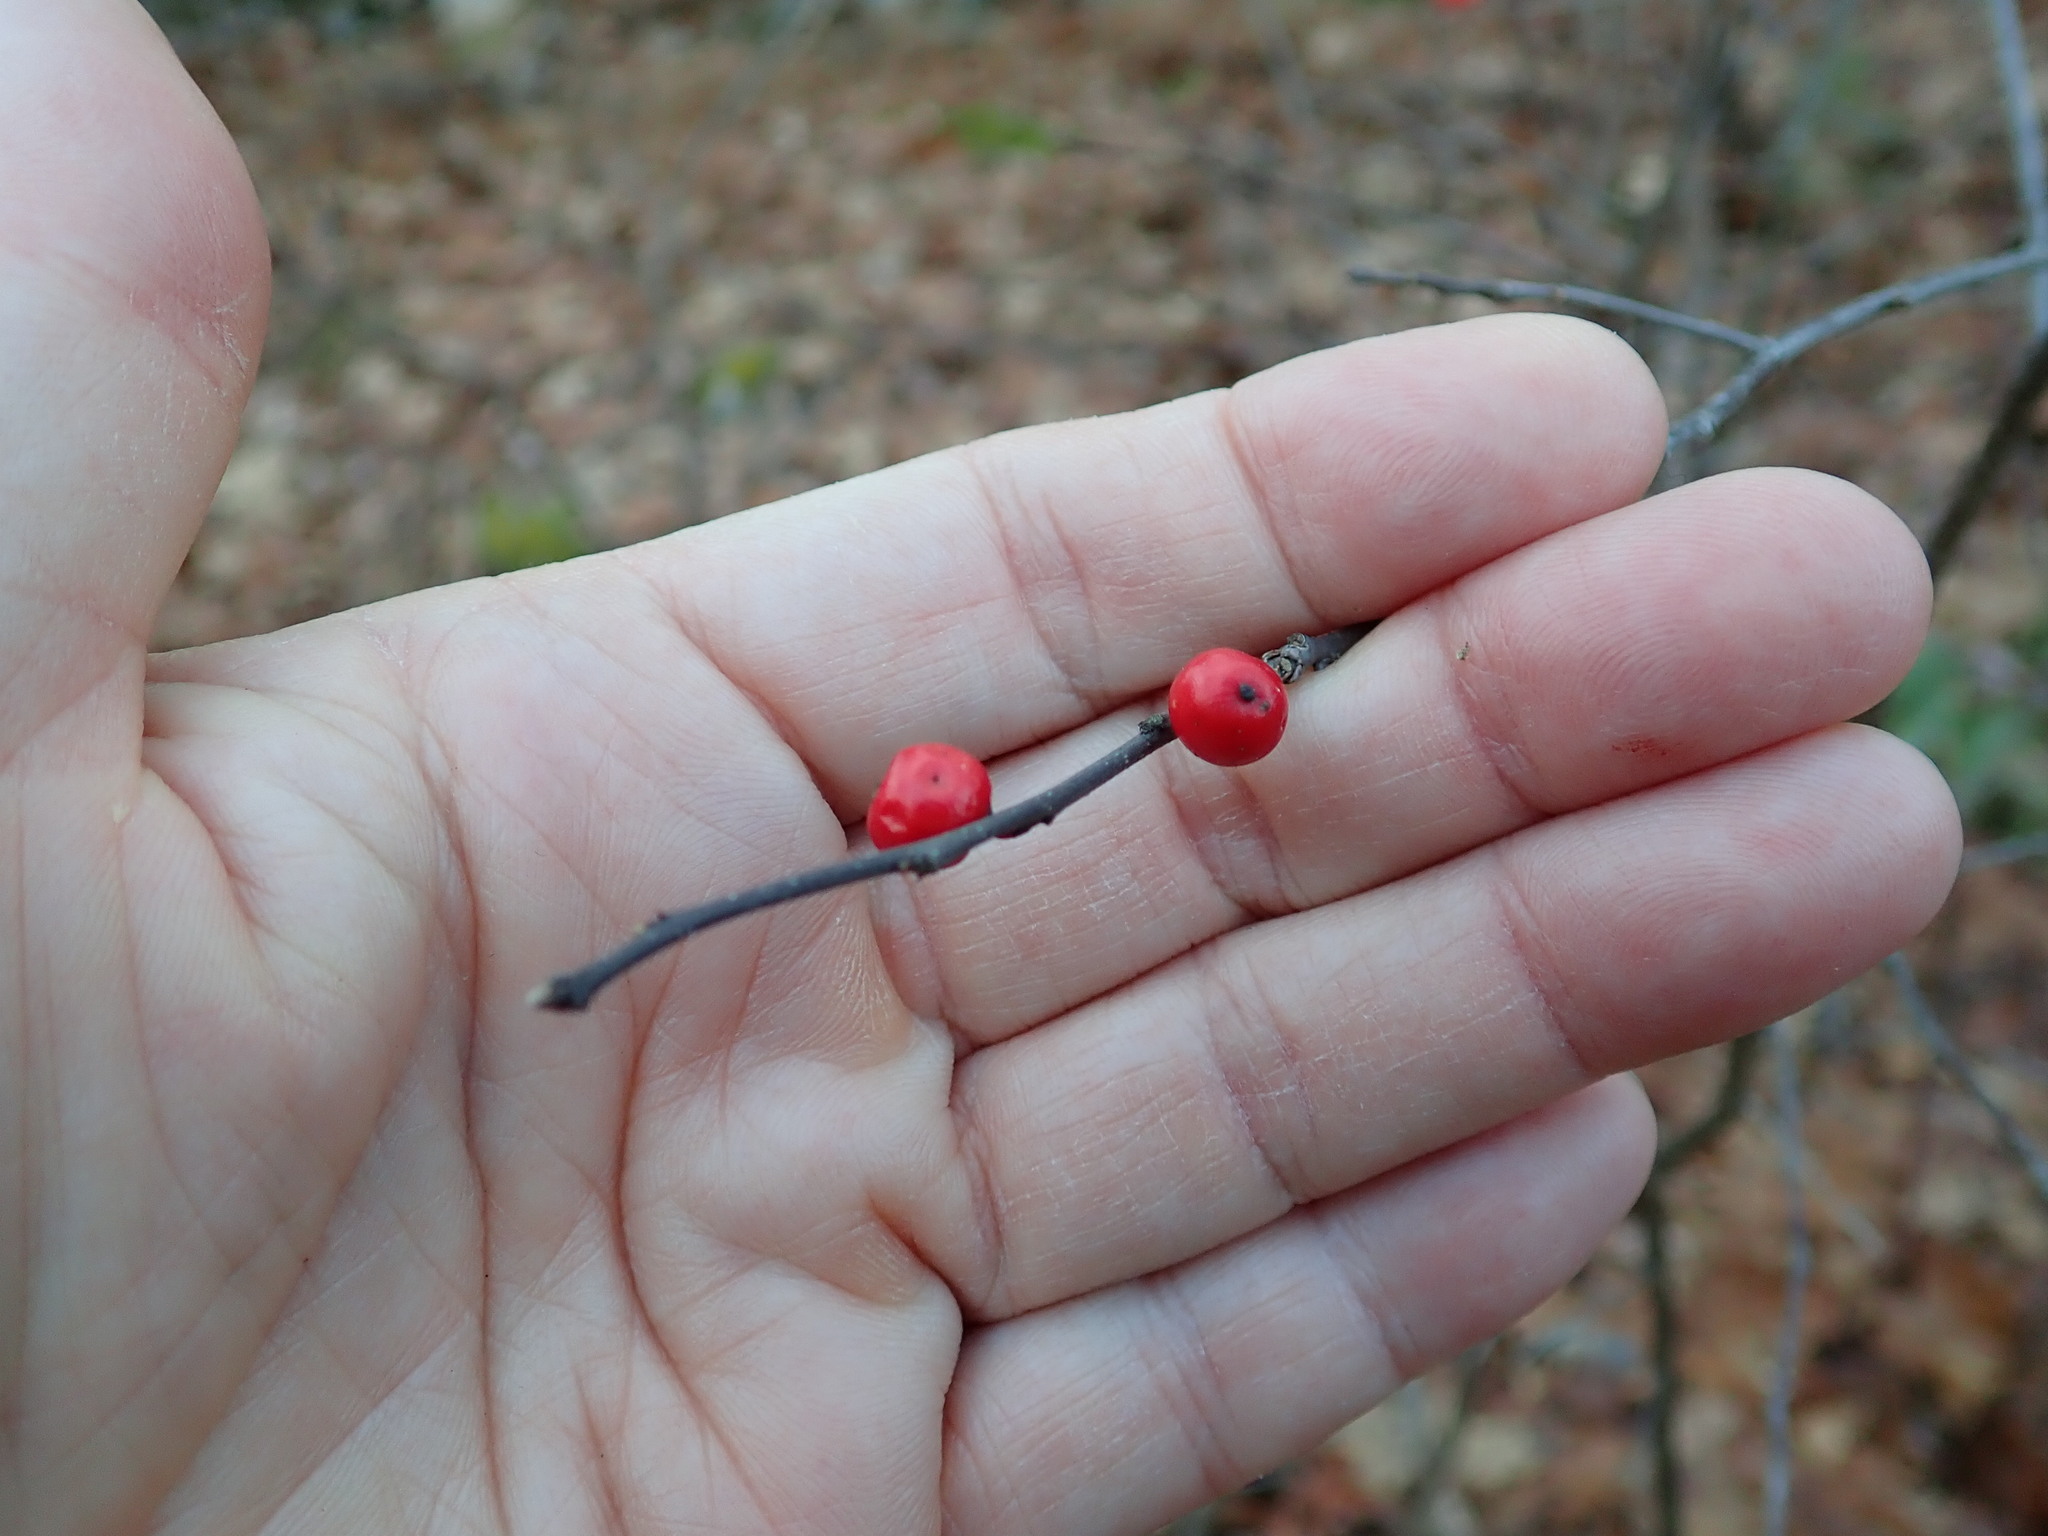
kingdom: Plantae
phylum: Tracheophyta
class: Magnoliopsida
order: Aquifoliales
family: Aquifoliaceae
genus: Ilex
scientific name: Ilex verticillata
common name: Virginia winterberry
